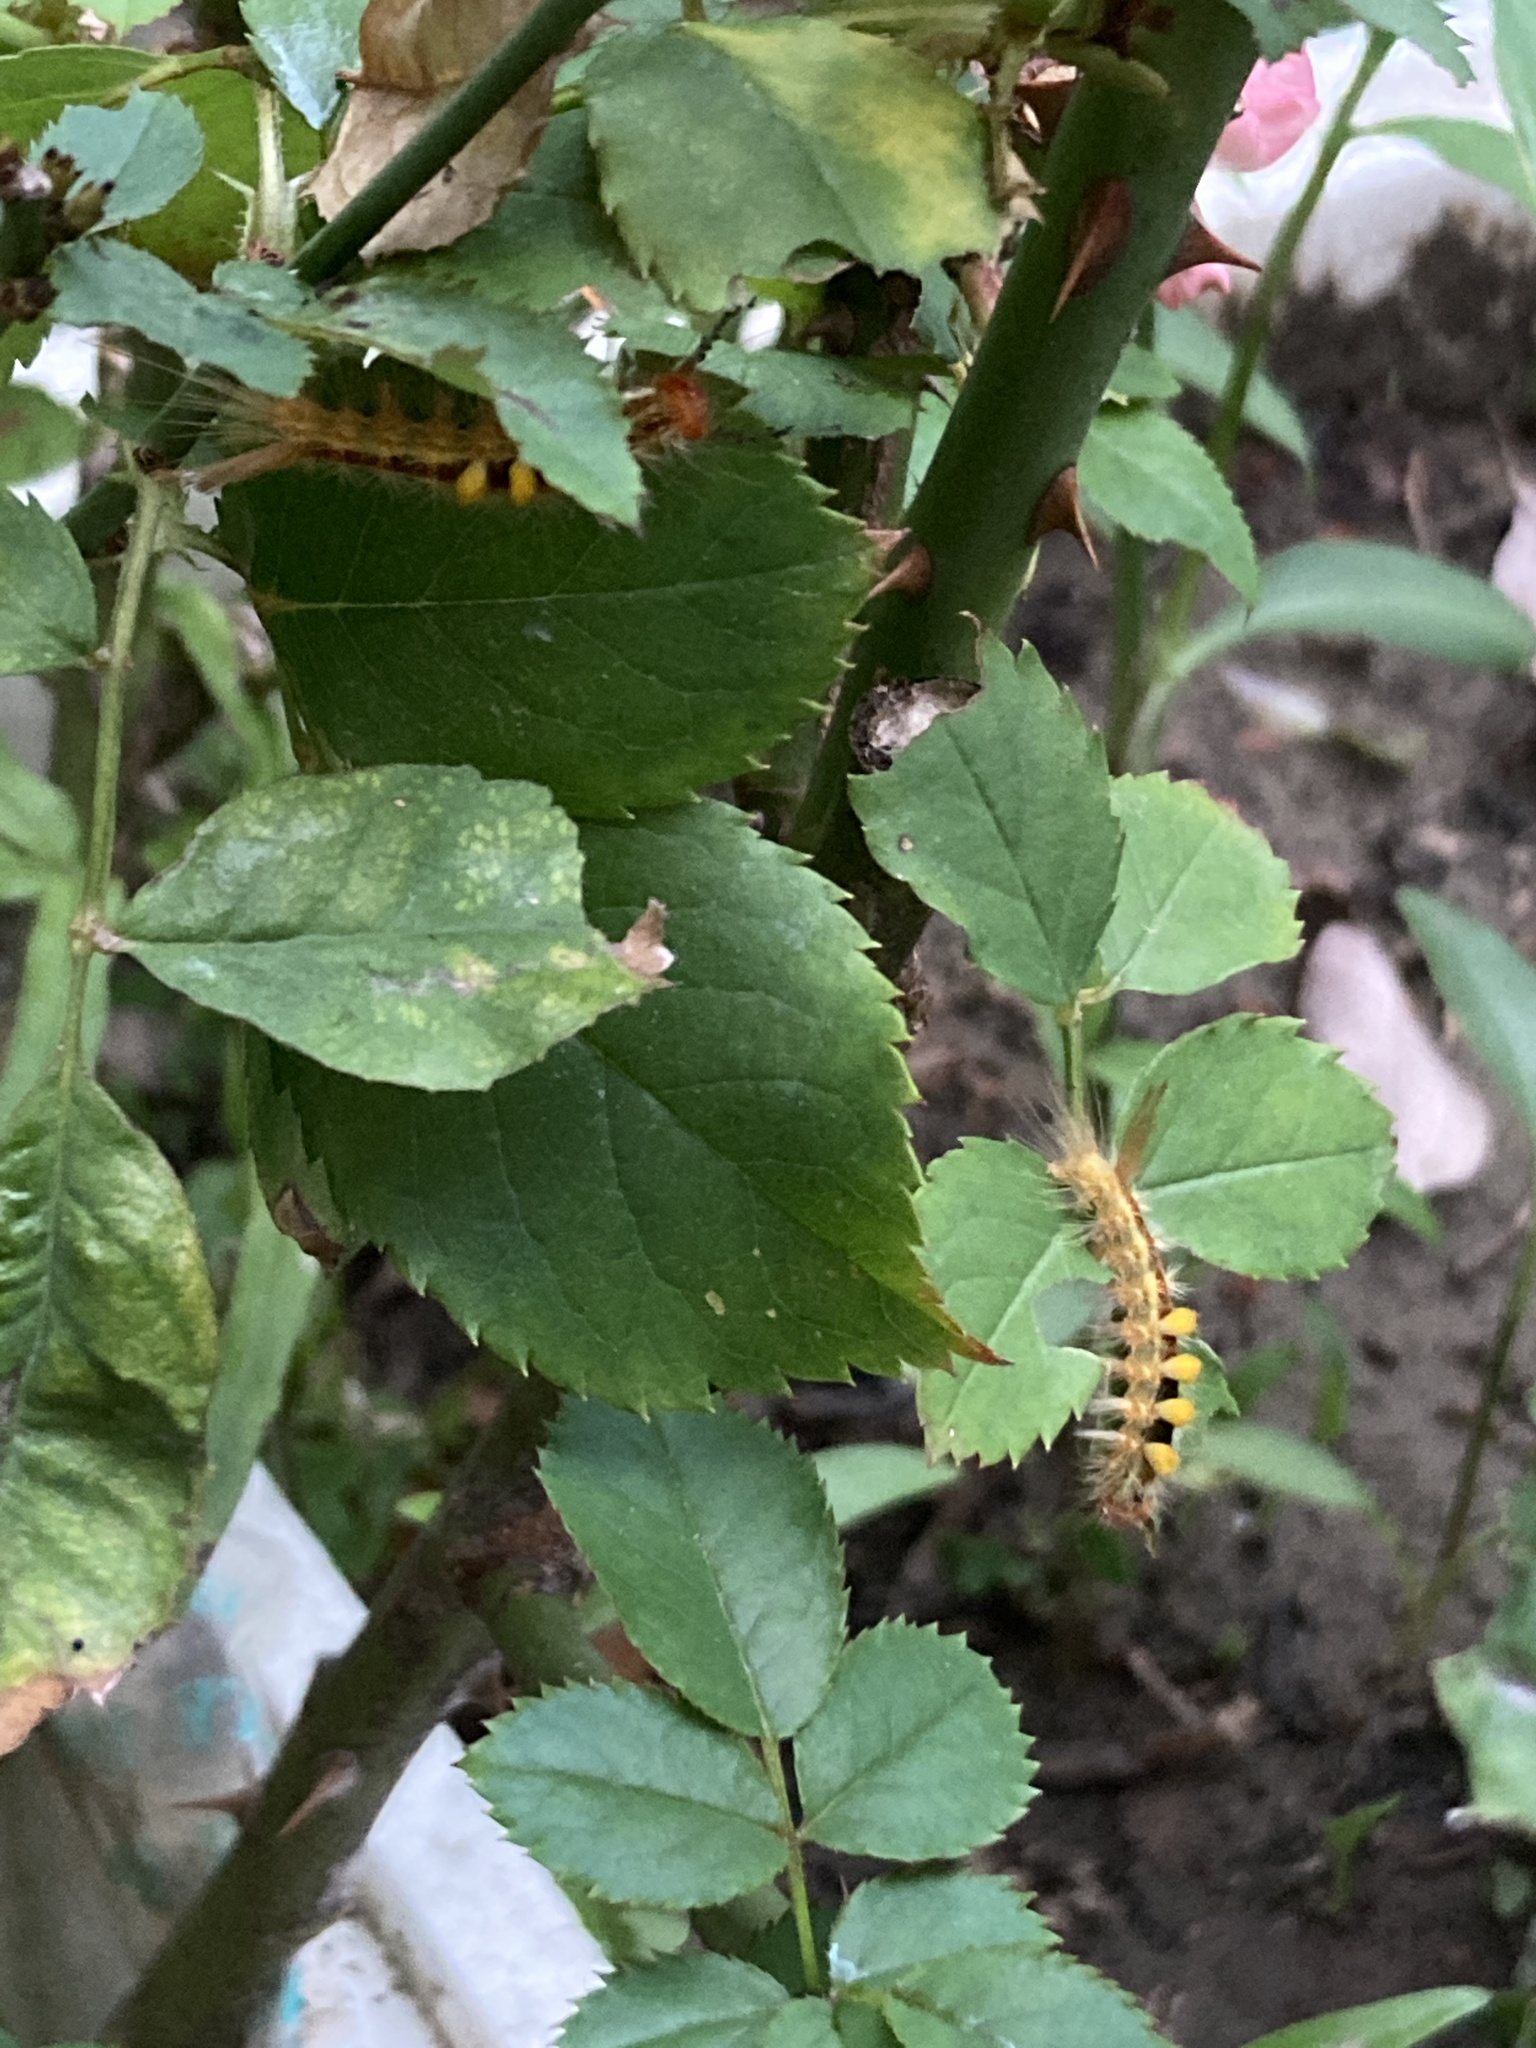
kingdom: Animalia
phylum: Arthropoda
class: Insecta
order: Lepidoptera
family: Erebidae
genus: Orgyia
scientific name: Orgyia postica
